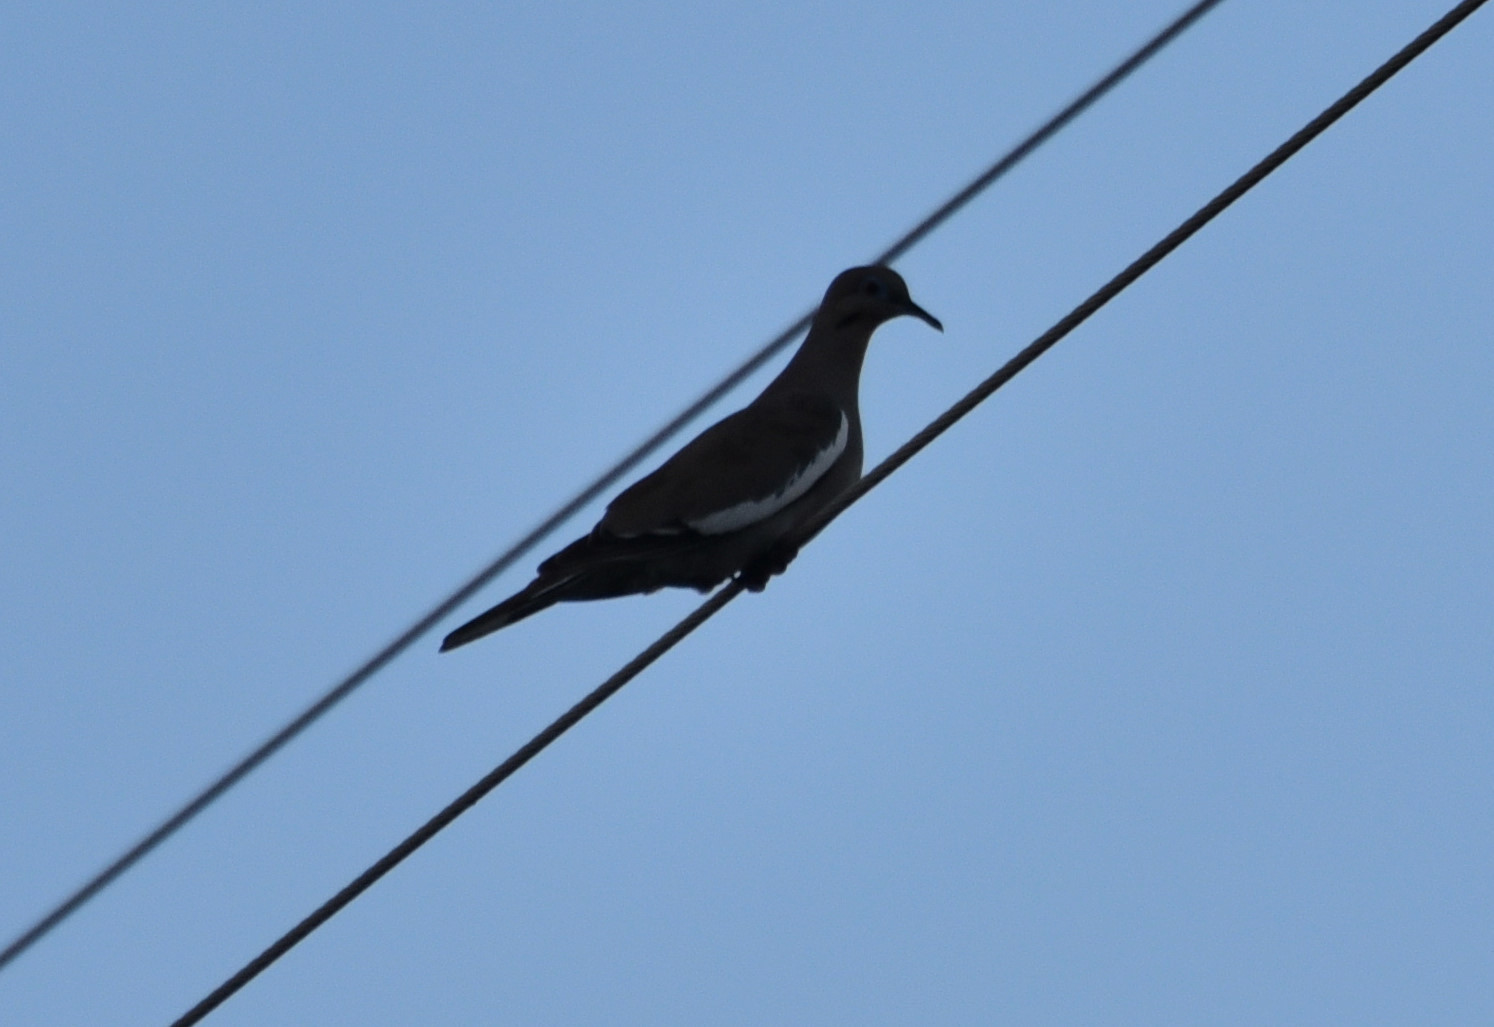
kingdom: Animalia
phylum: Chordata
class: Aves
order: Columbiformes
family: Columbidae
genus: Zenaida
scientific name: Zenaida asiatica
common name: White-winged dove
